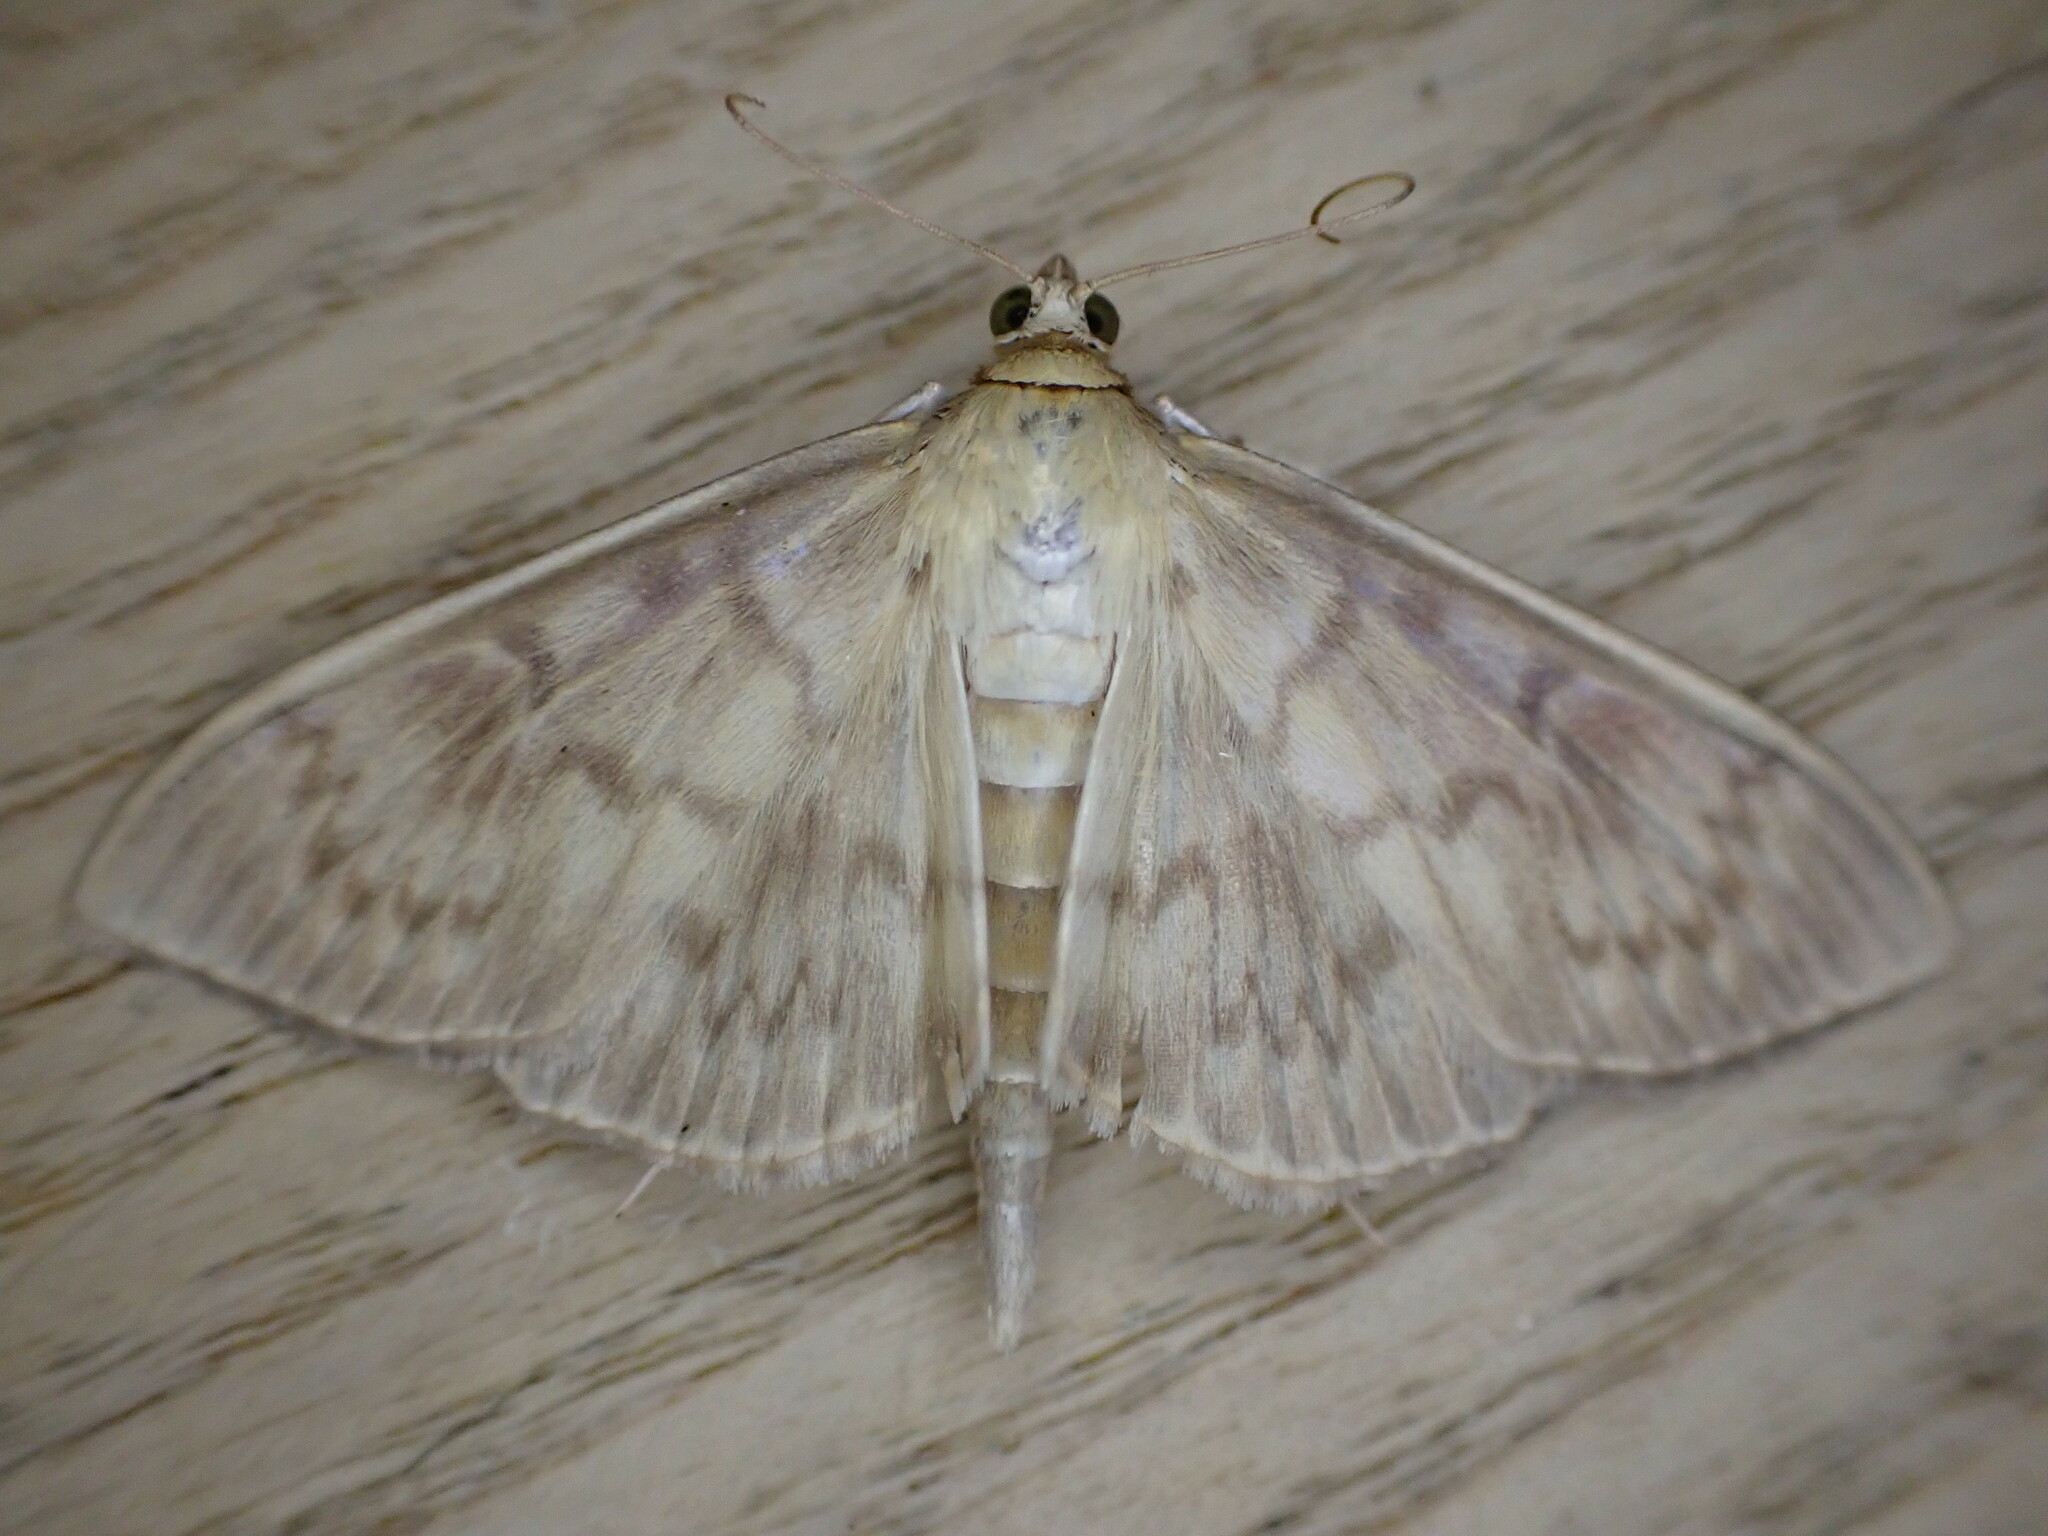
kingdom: Animalia
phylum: Arthropoda
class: Insecta
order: Lepidoptera
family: Crambidae
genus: Patania
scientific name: Patania ruralis
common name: Mother of pearl
